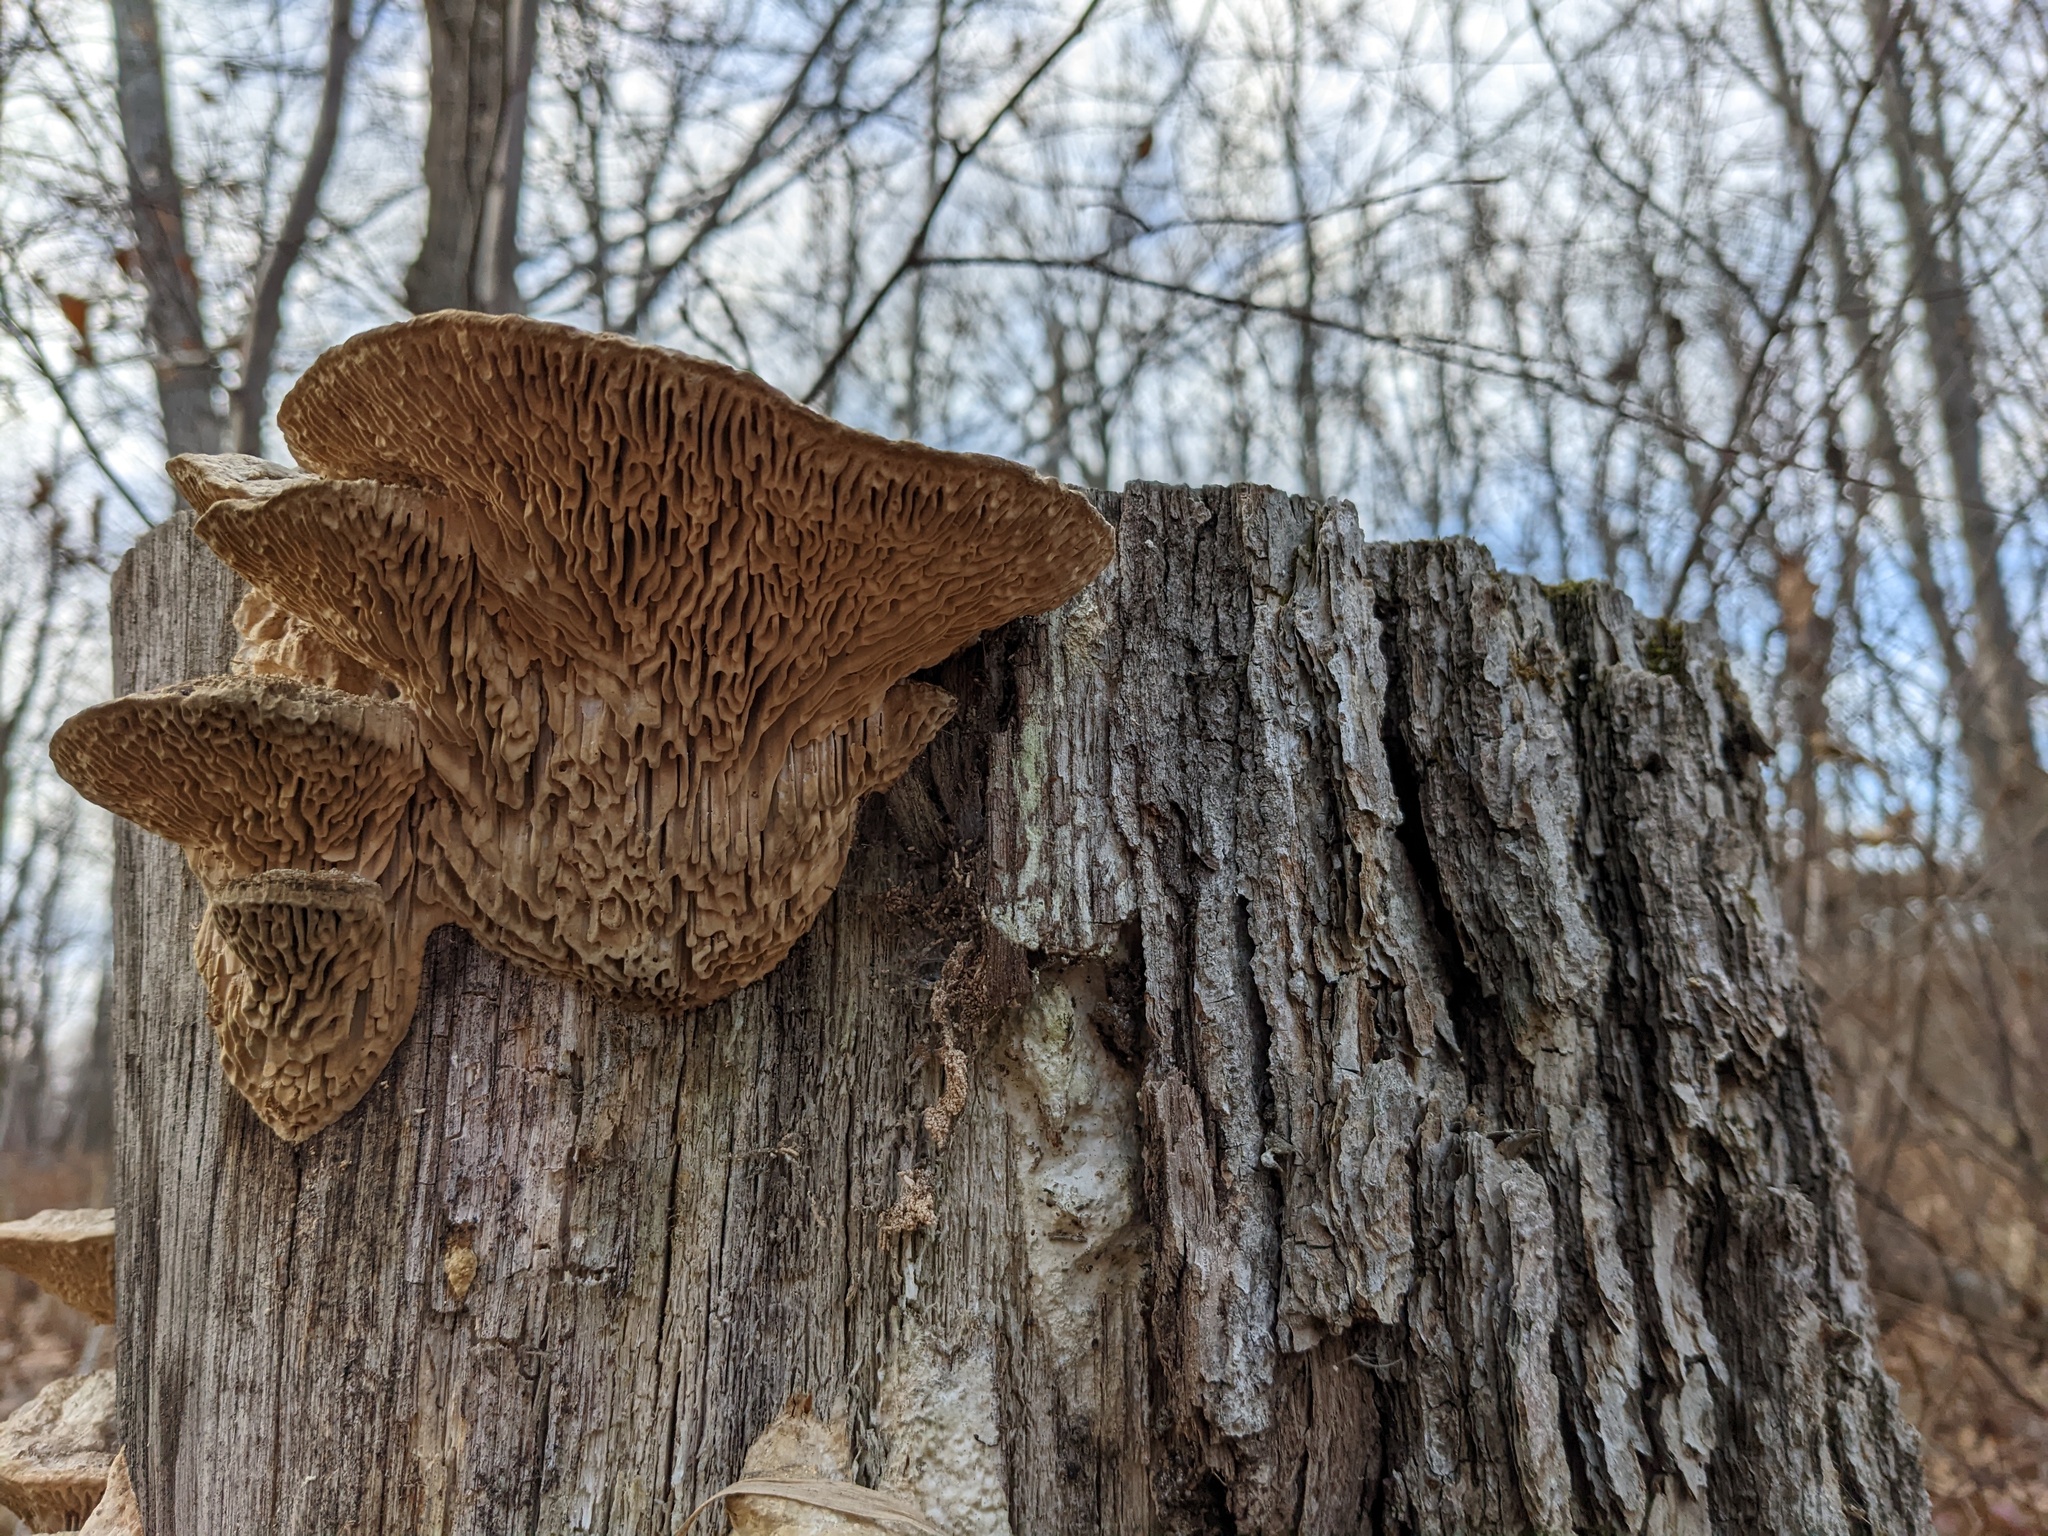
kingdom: Fungi
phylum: Basidiomycota
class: Agaricomycetes
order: Polyporales
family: Fomitopsidaceae
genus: Fomitopsis
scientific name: Fomitopsis
